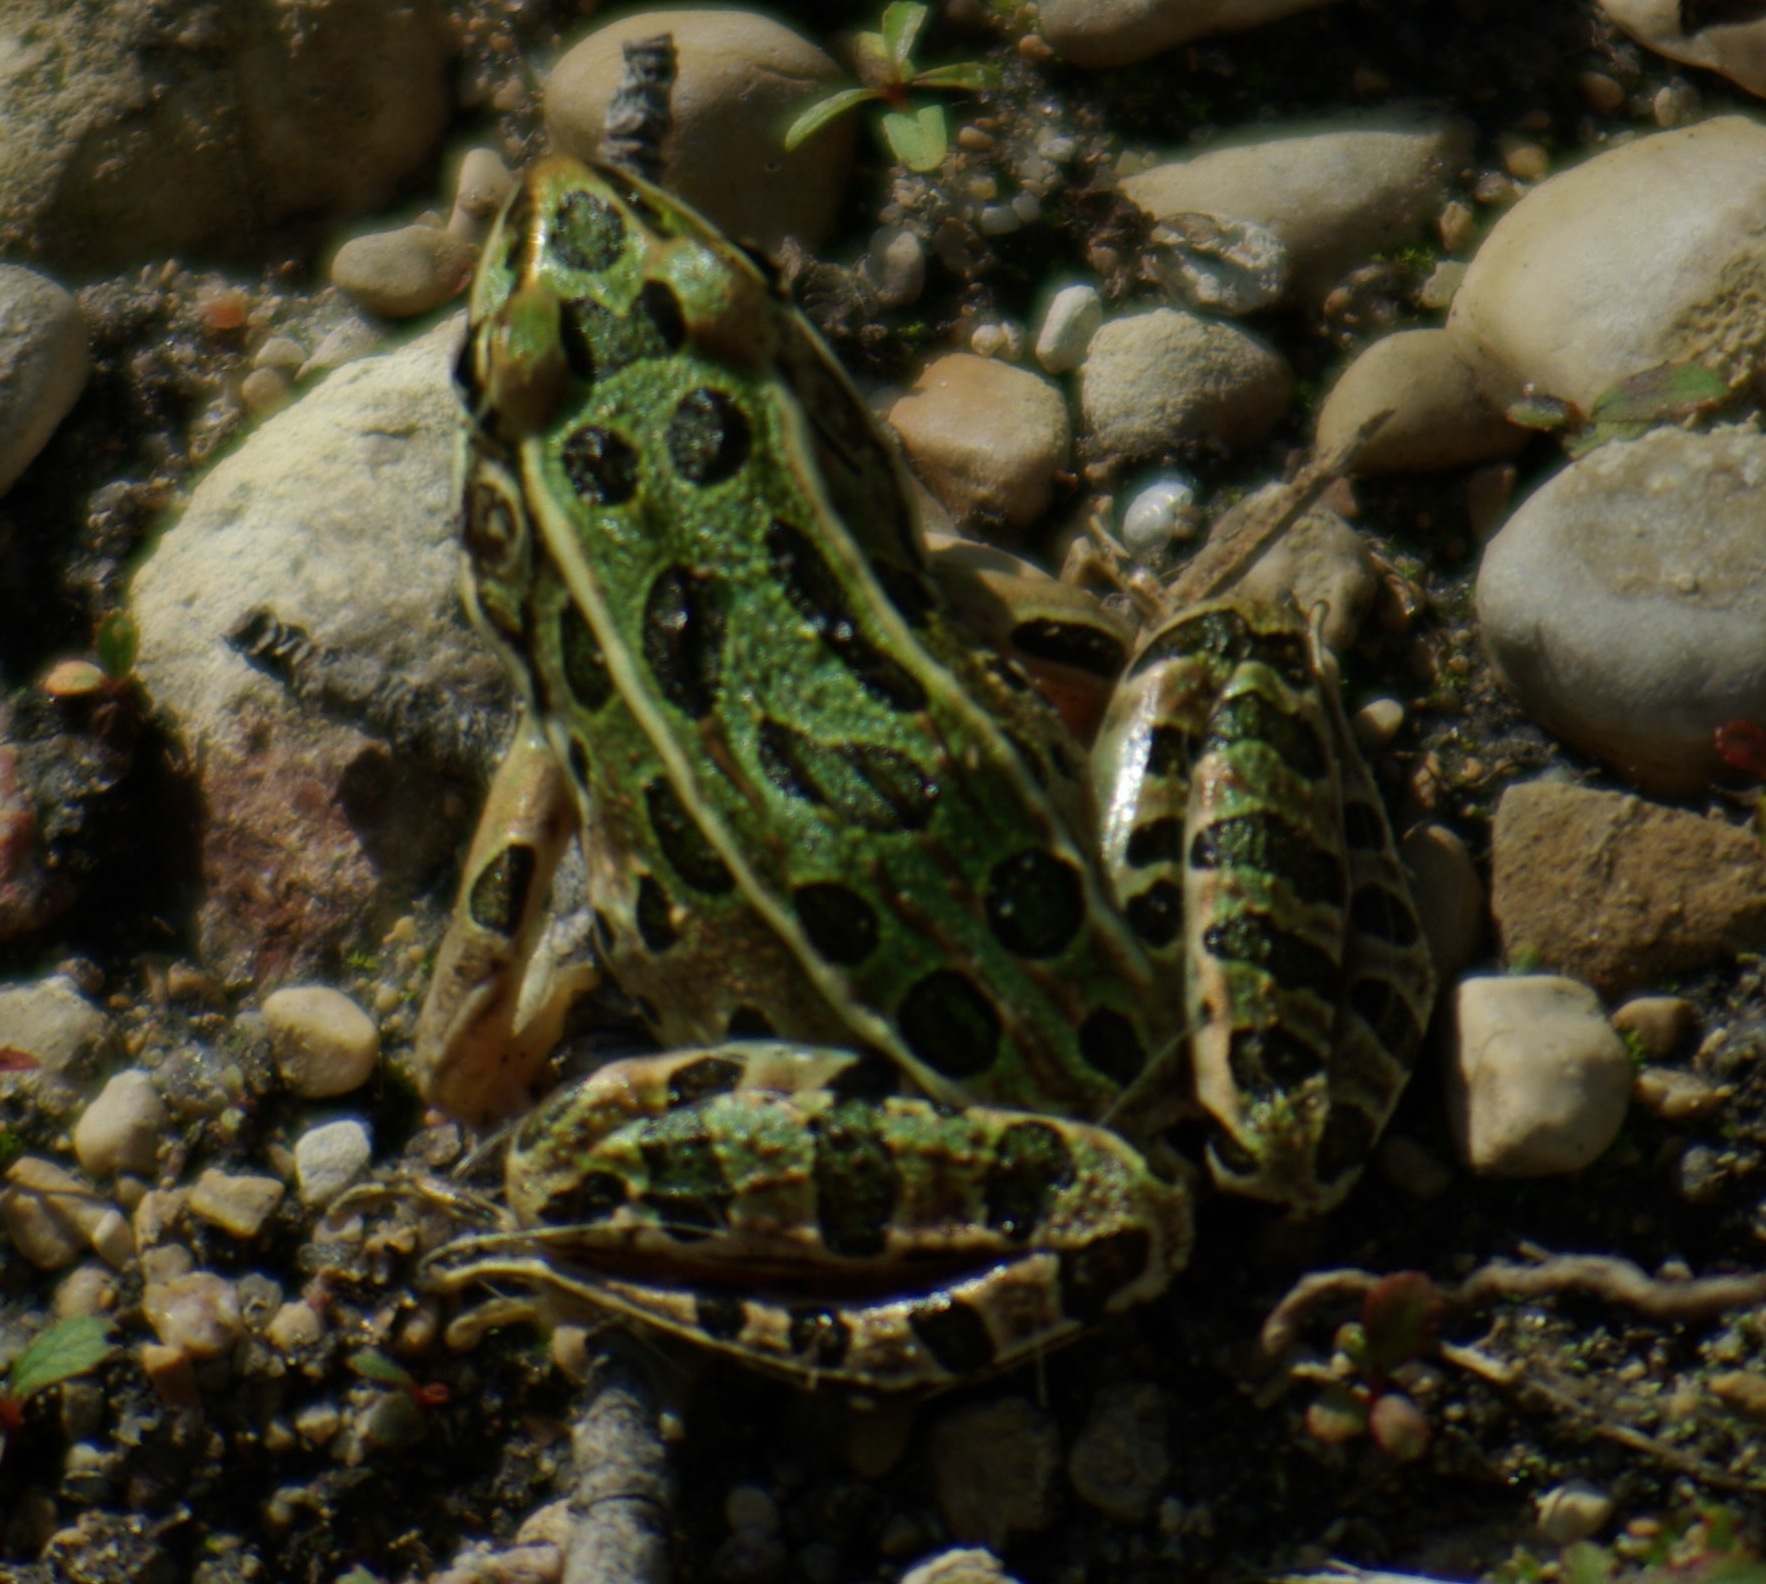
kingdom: Animalia
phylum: Chordata
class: Amphibia
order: Anura
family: Ranidae
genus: Lithobates
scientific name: Lithobates pipiens
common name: Northern leopard frog
